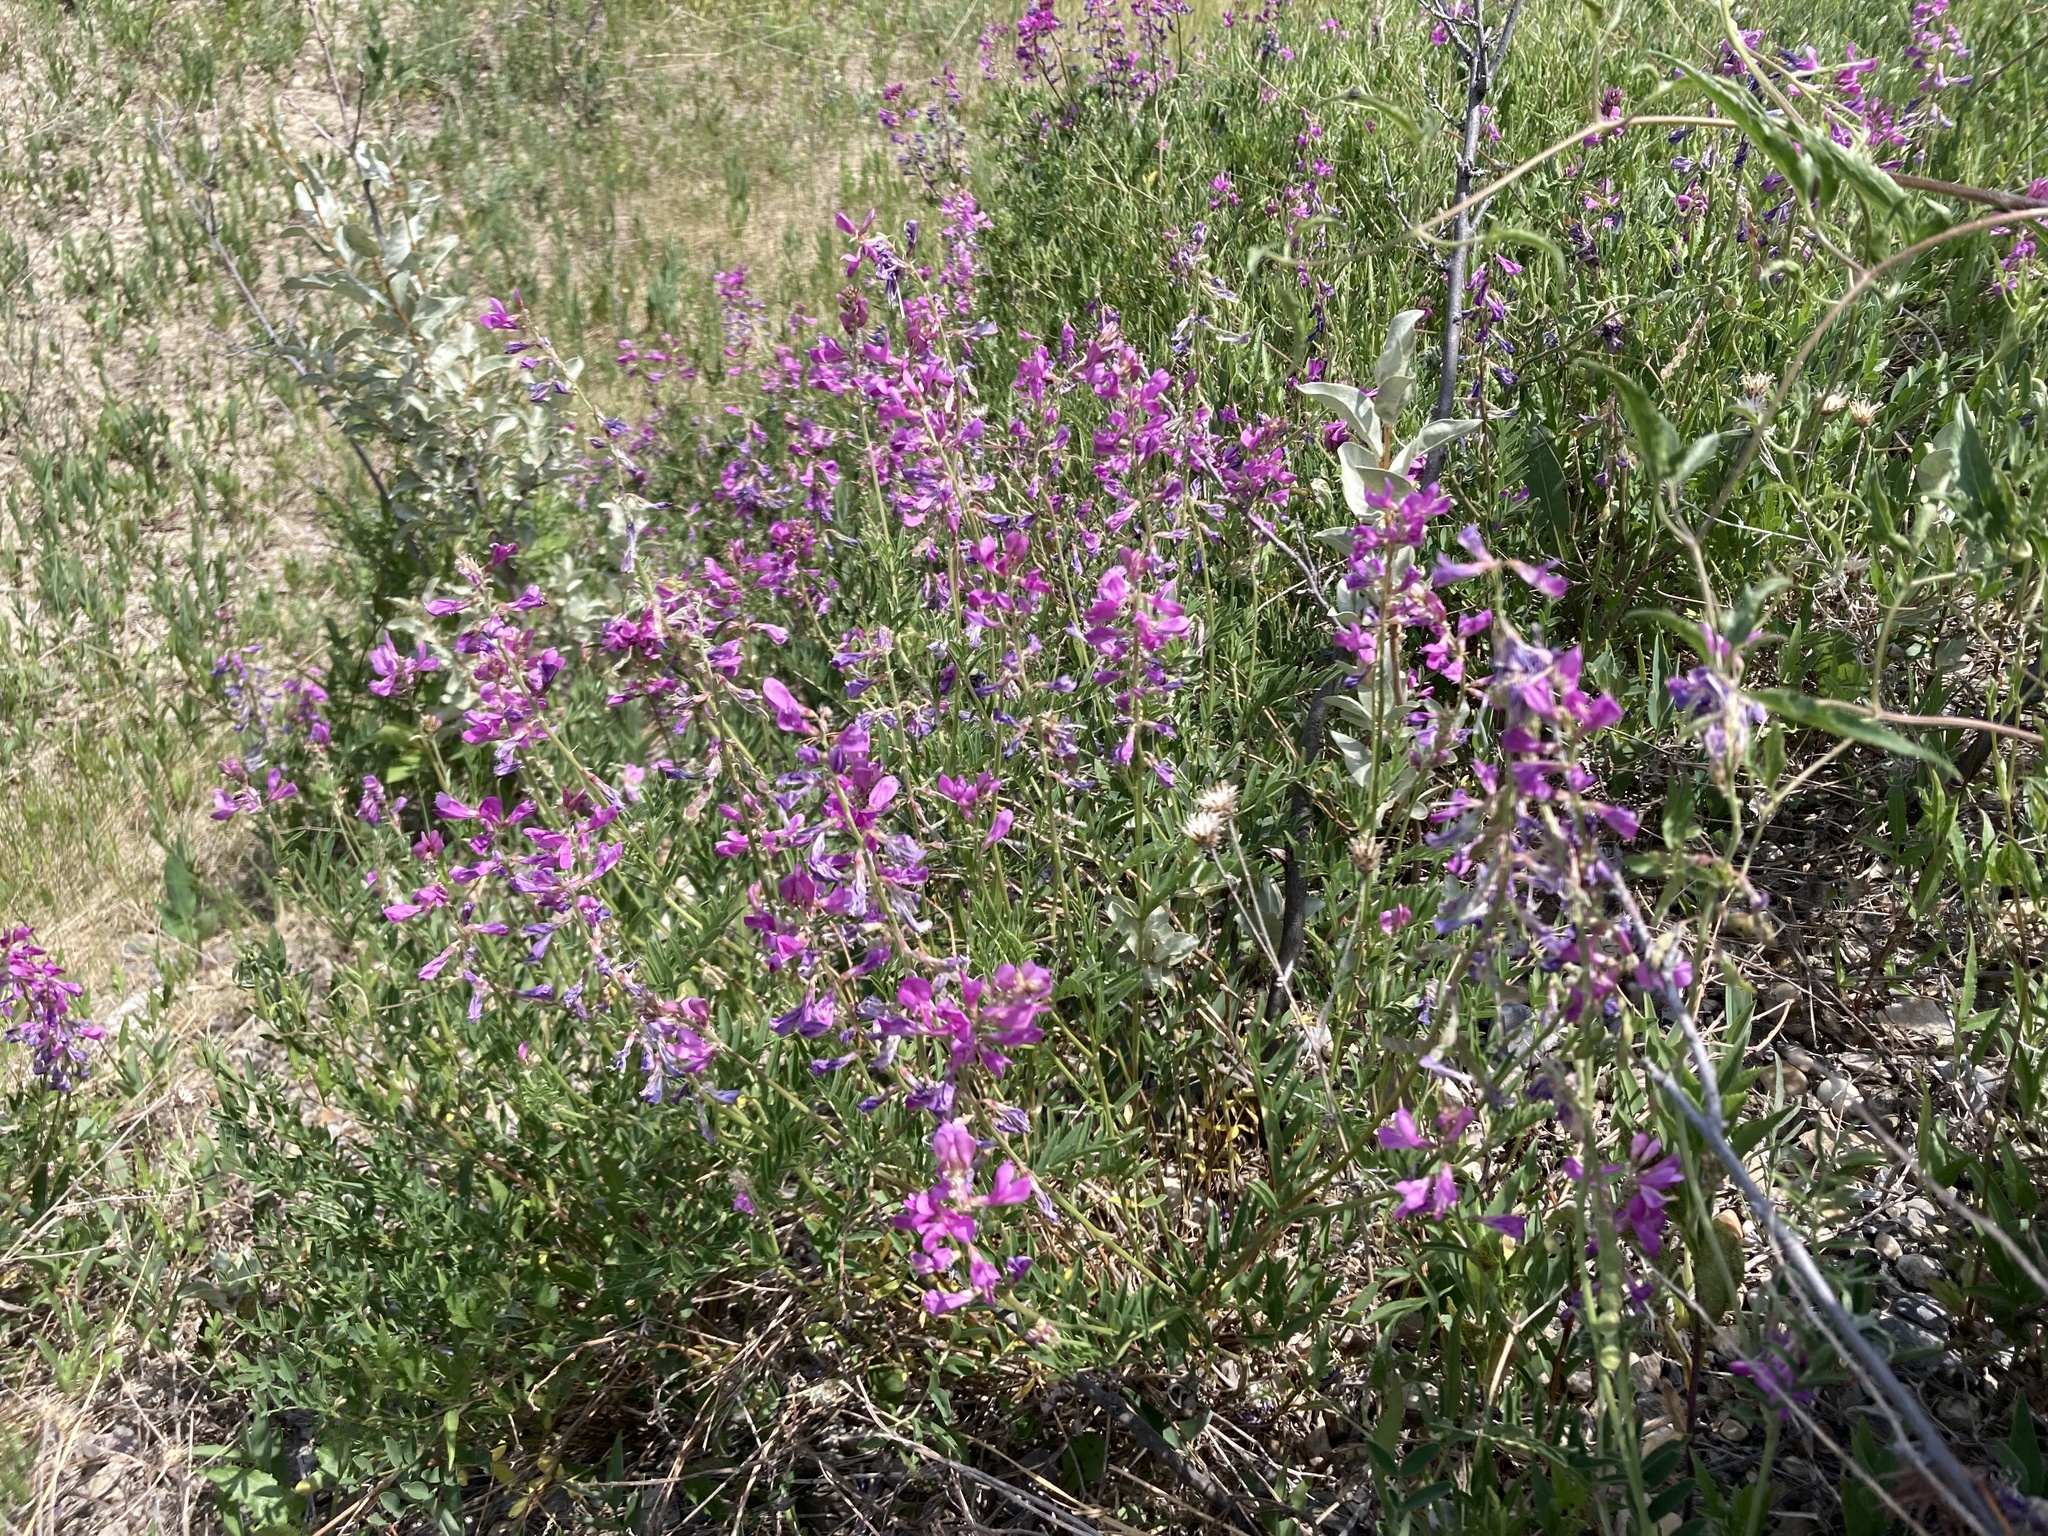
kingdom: Plantae
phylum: Tracheophyta
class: Magnoliopsida
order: Fabales
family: Fabaceae
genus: Hedysarum
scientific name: Hedysarum boreale
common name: Northern sweet-vetch
